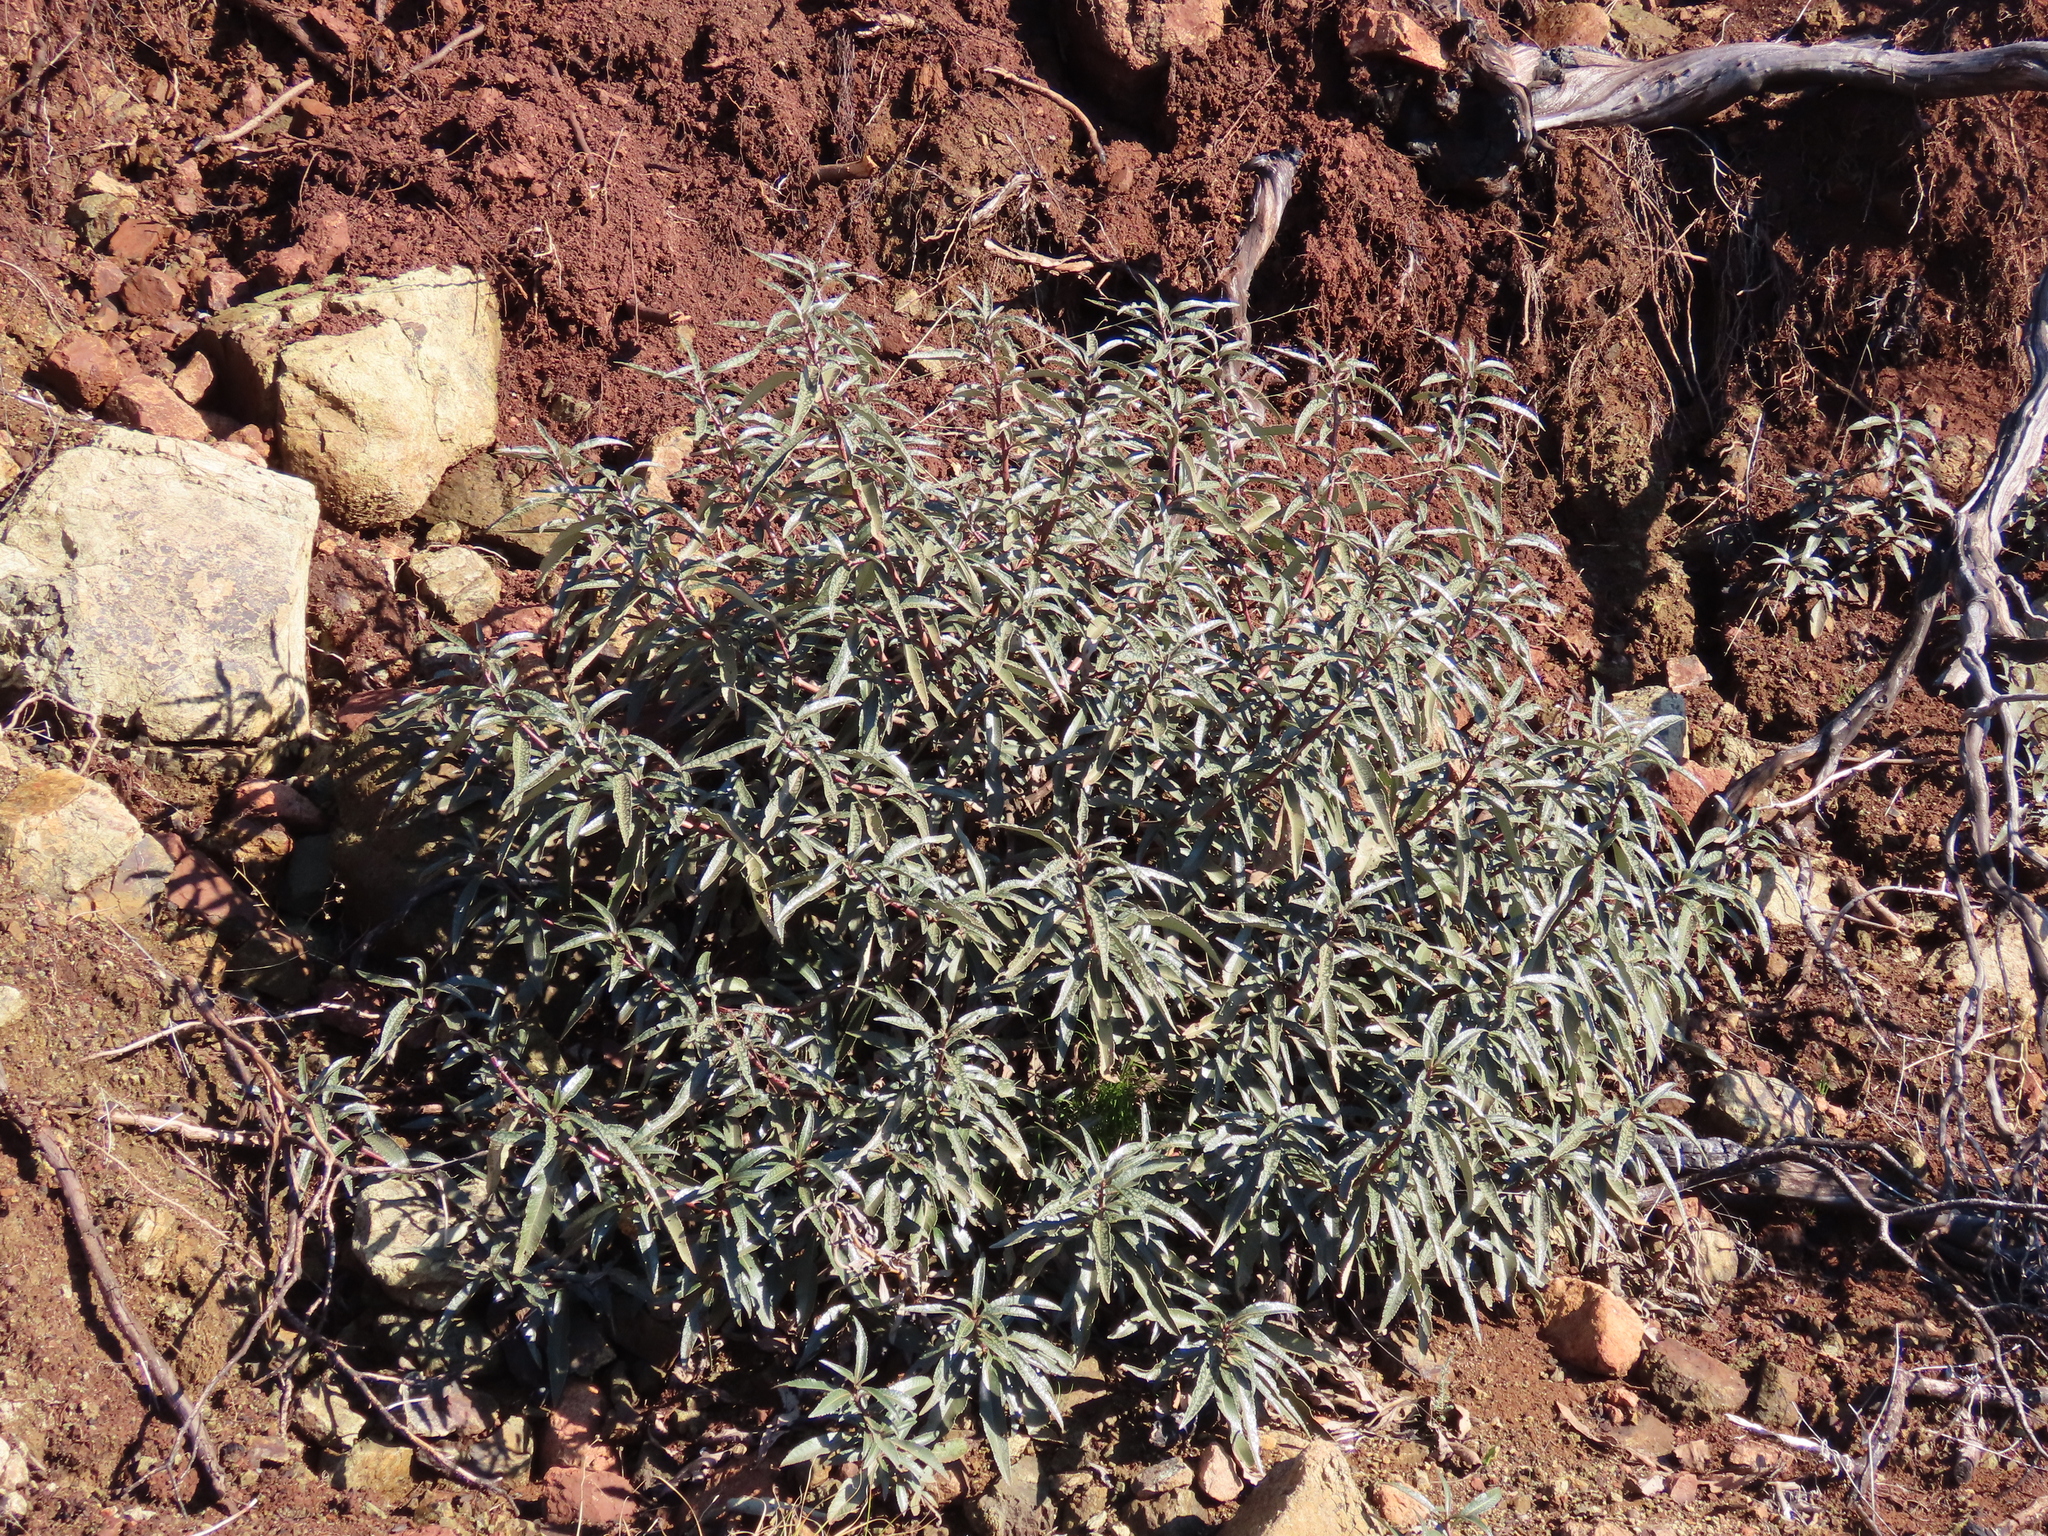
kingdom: Plantae
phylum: Tracheophyta
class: Magnoliopsida
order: Boraginales
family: Namaceae
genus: Eriodictyon
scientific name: Eriodictyon californicum
